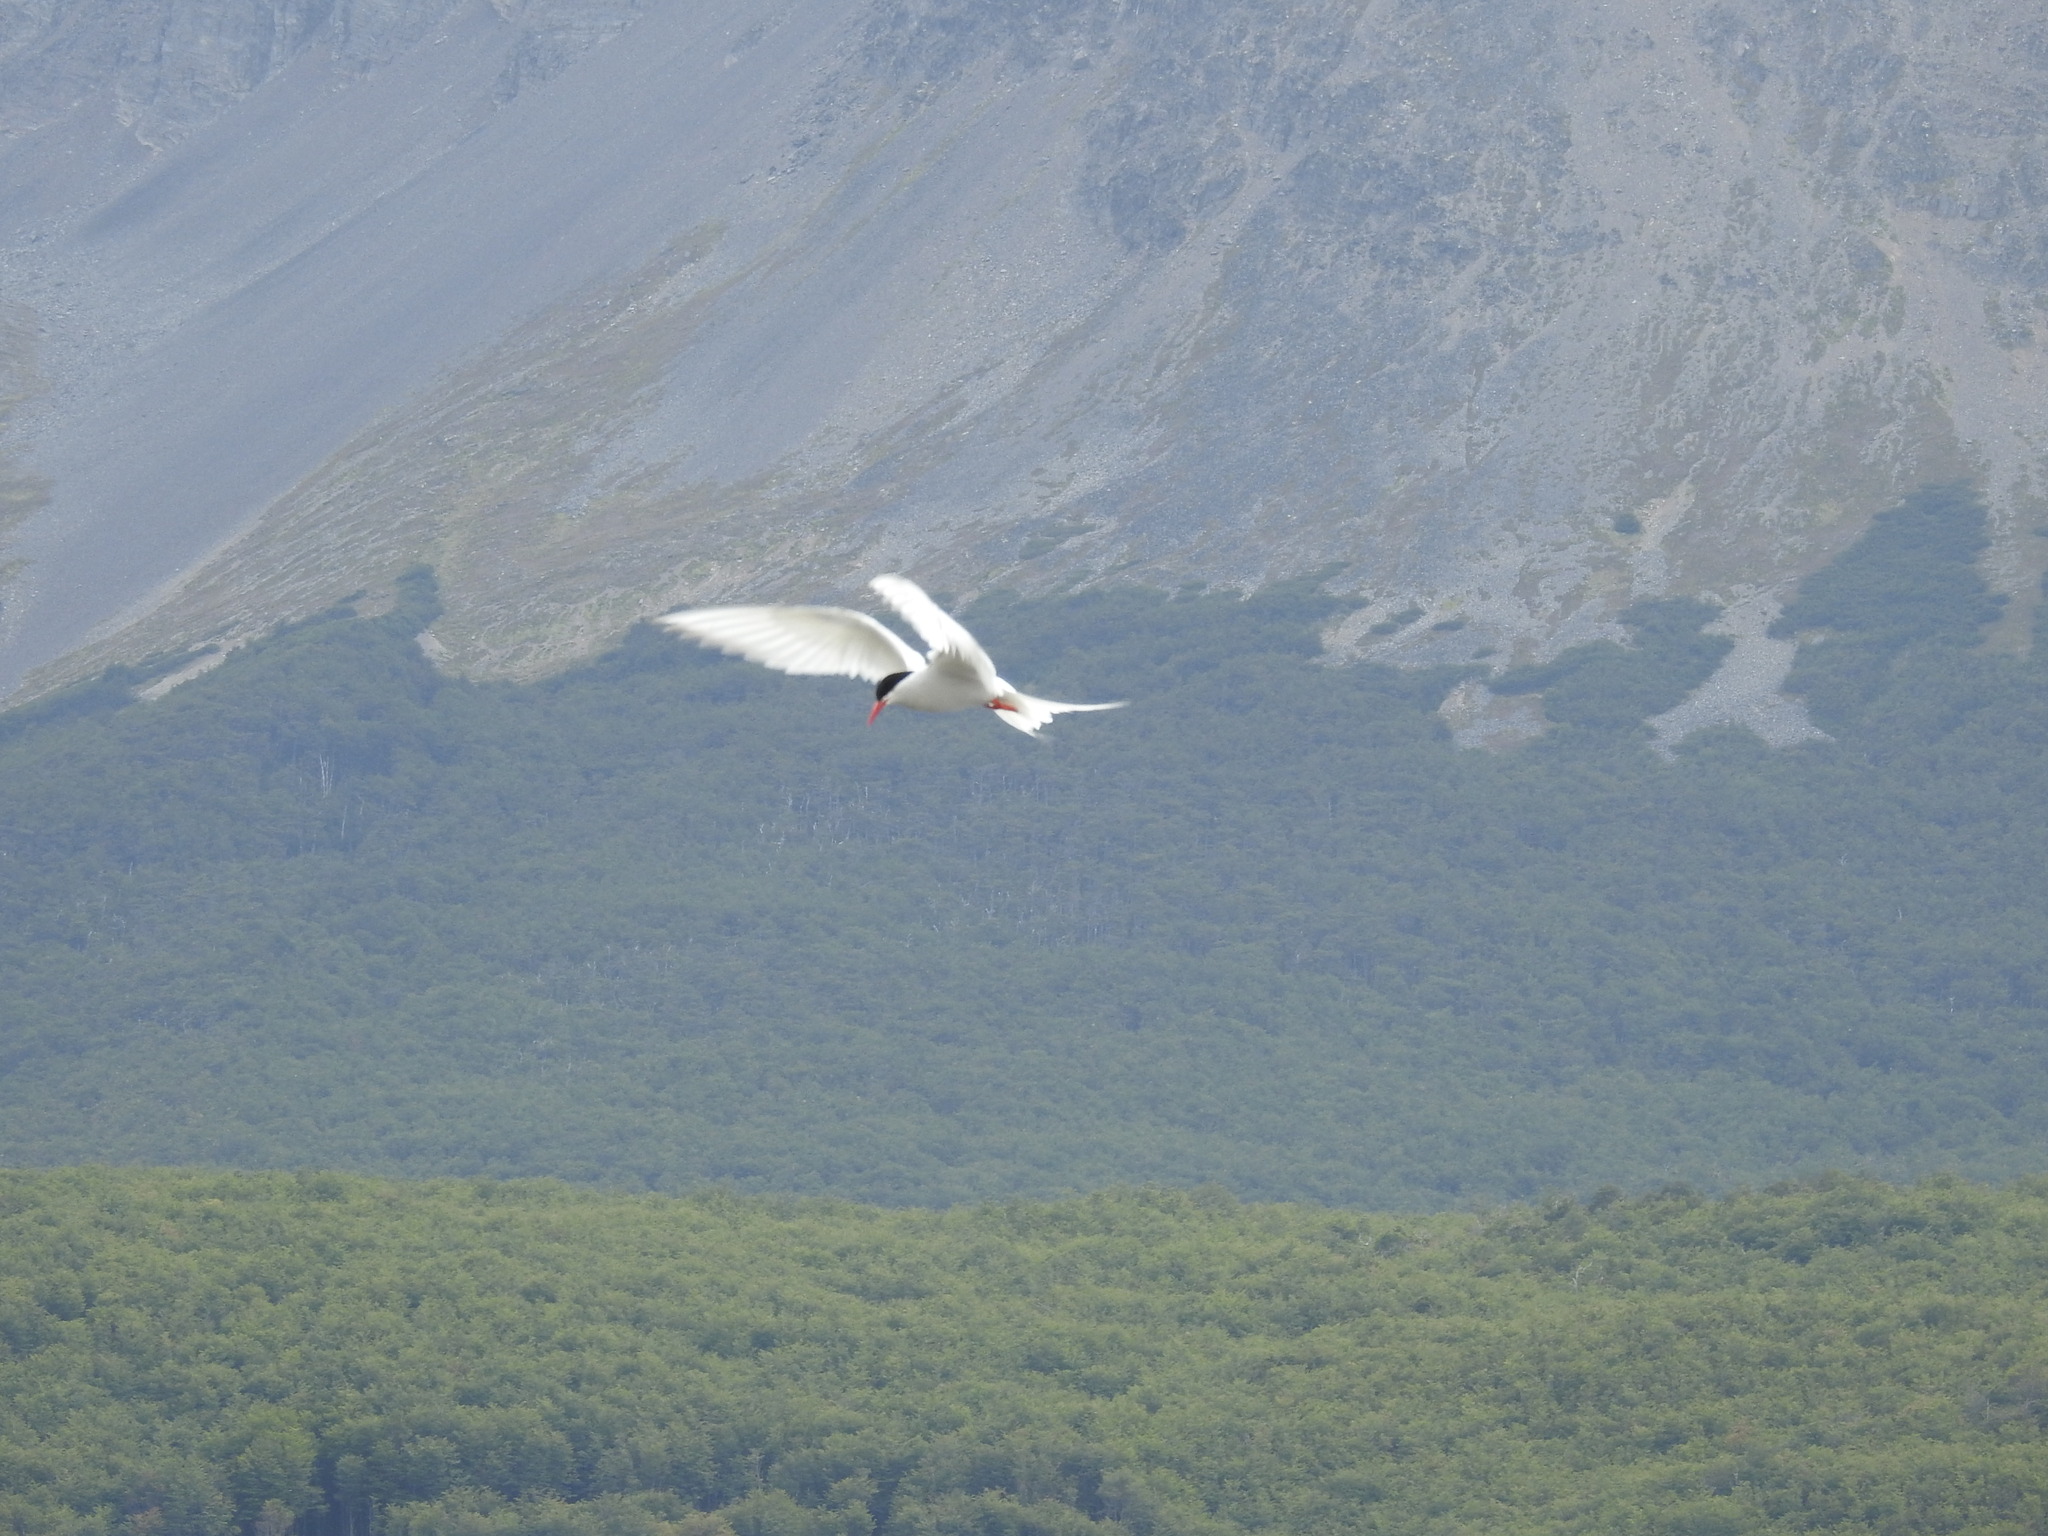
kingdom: Animalia
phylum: Chordata
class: Aves
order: Charadriiformes
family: Laridae
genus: Sterna
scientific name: Sterna hirundinacea
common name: South american tern
